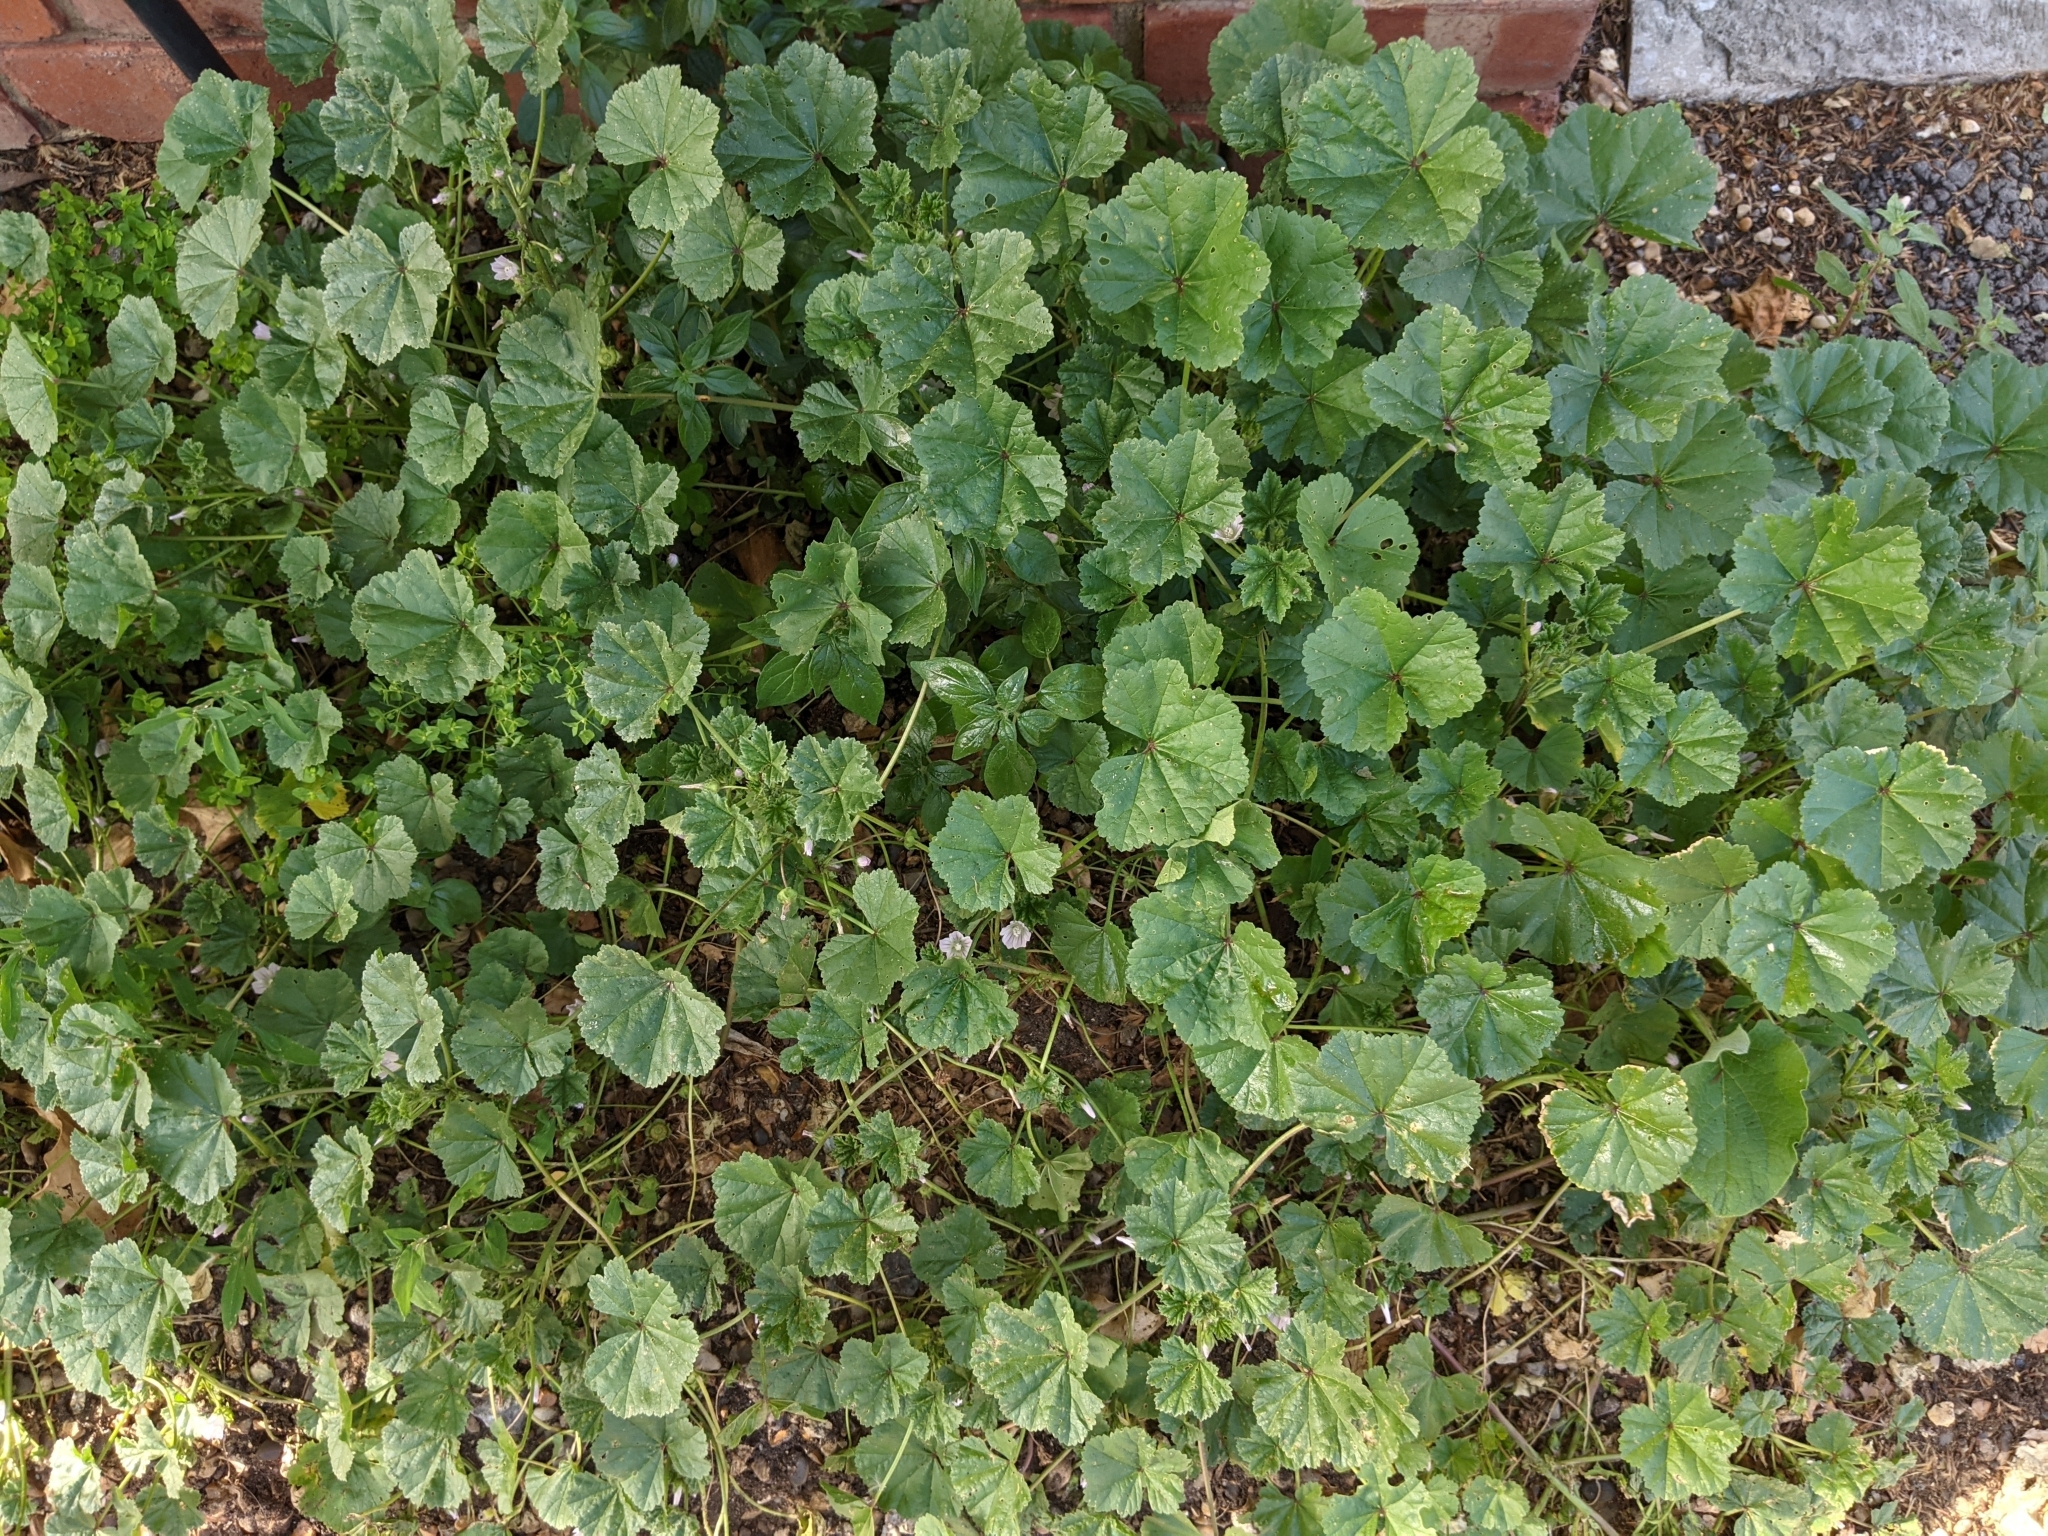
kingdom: Plantae
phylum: Tracheophyta
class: Magnoliopsida
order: Malvales
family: Malvaceae
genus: Malva
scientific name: Malva neglecta
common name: Common mallow
